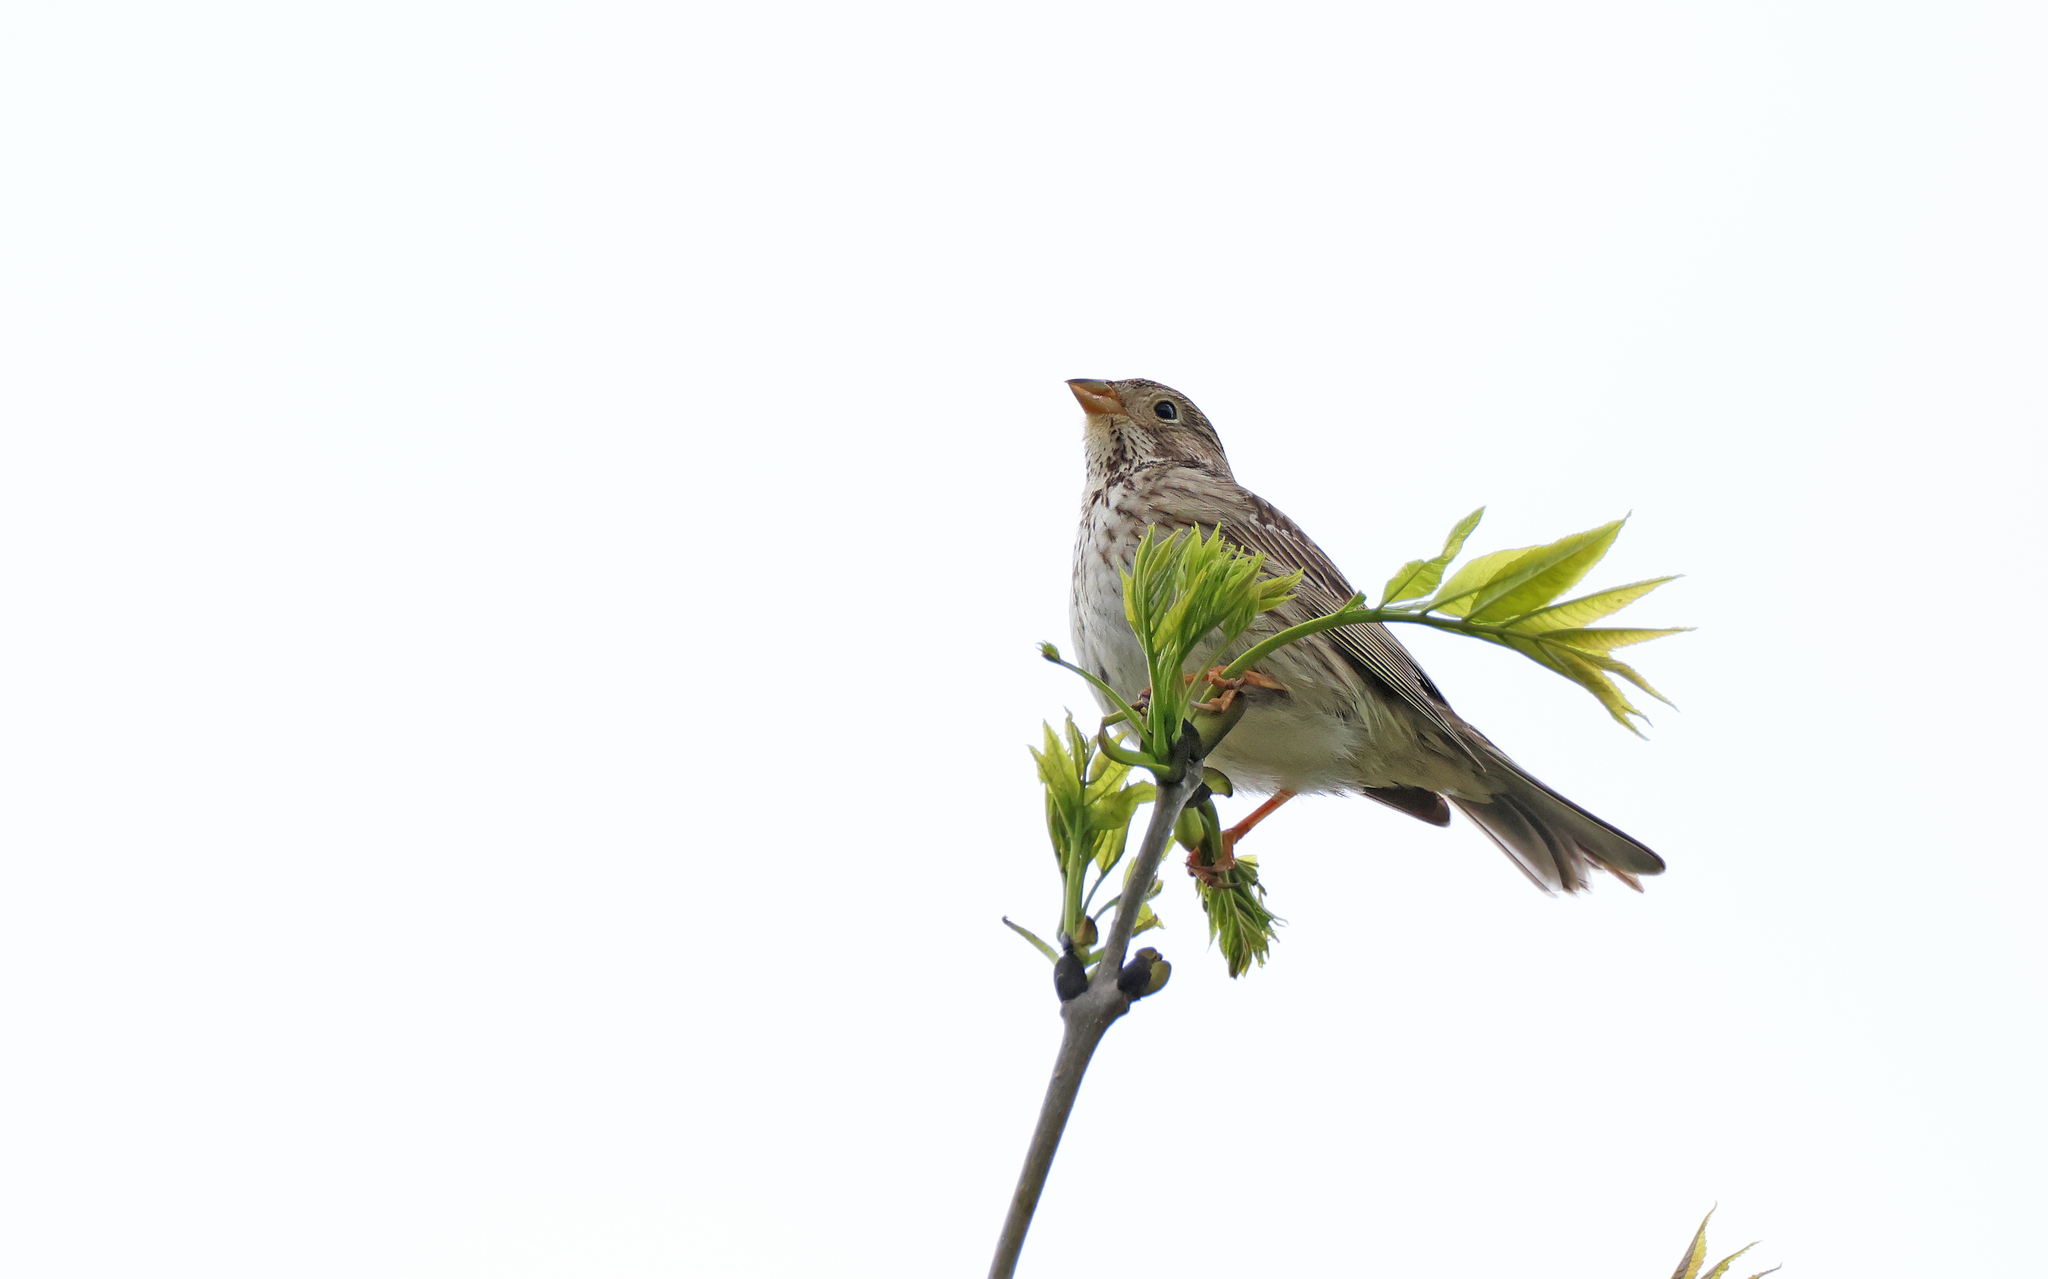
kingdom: Animalia
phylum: Chordata
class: Aves
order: Passeriformes
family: Emberizidae
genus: Emberiza
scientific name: Emberiza calandra
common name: Corn bunting
